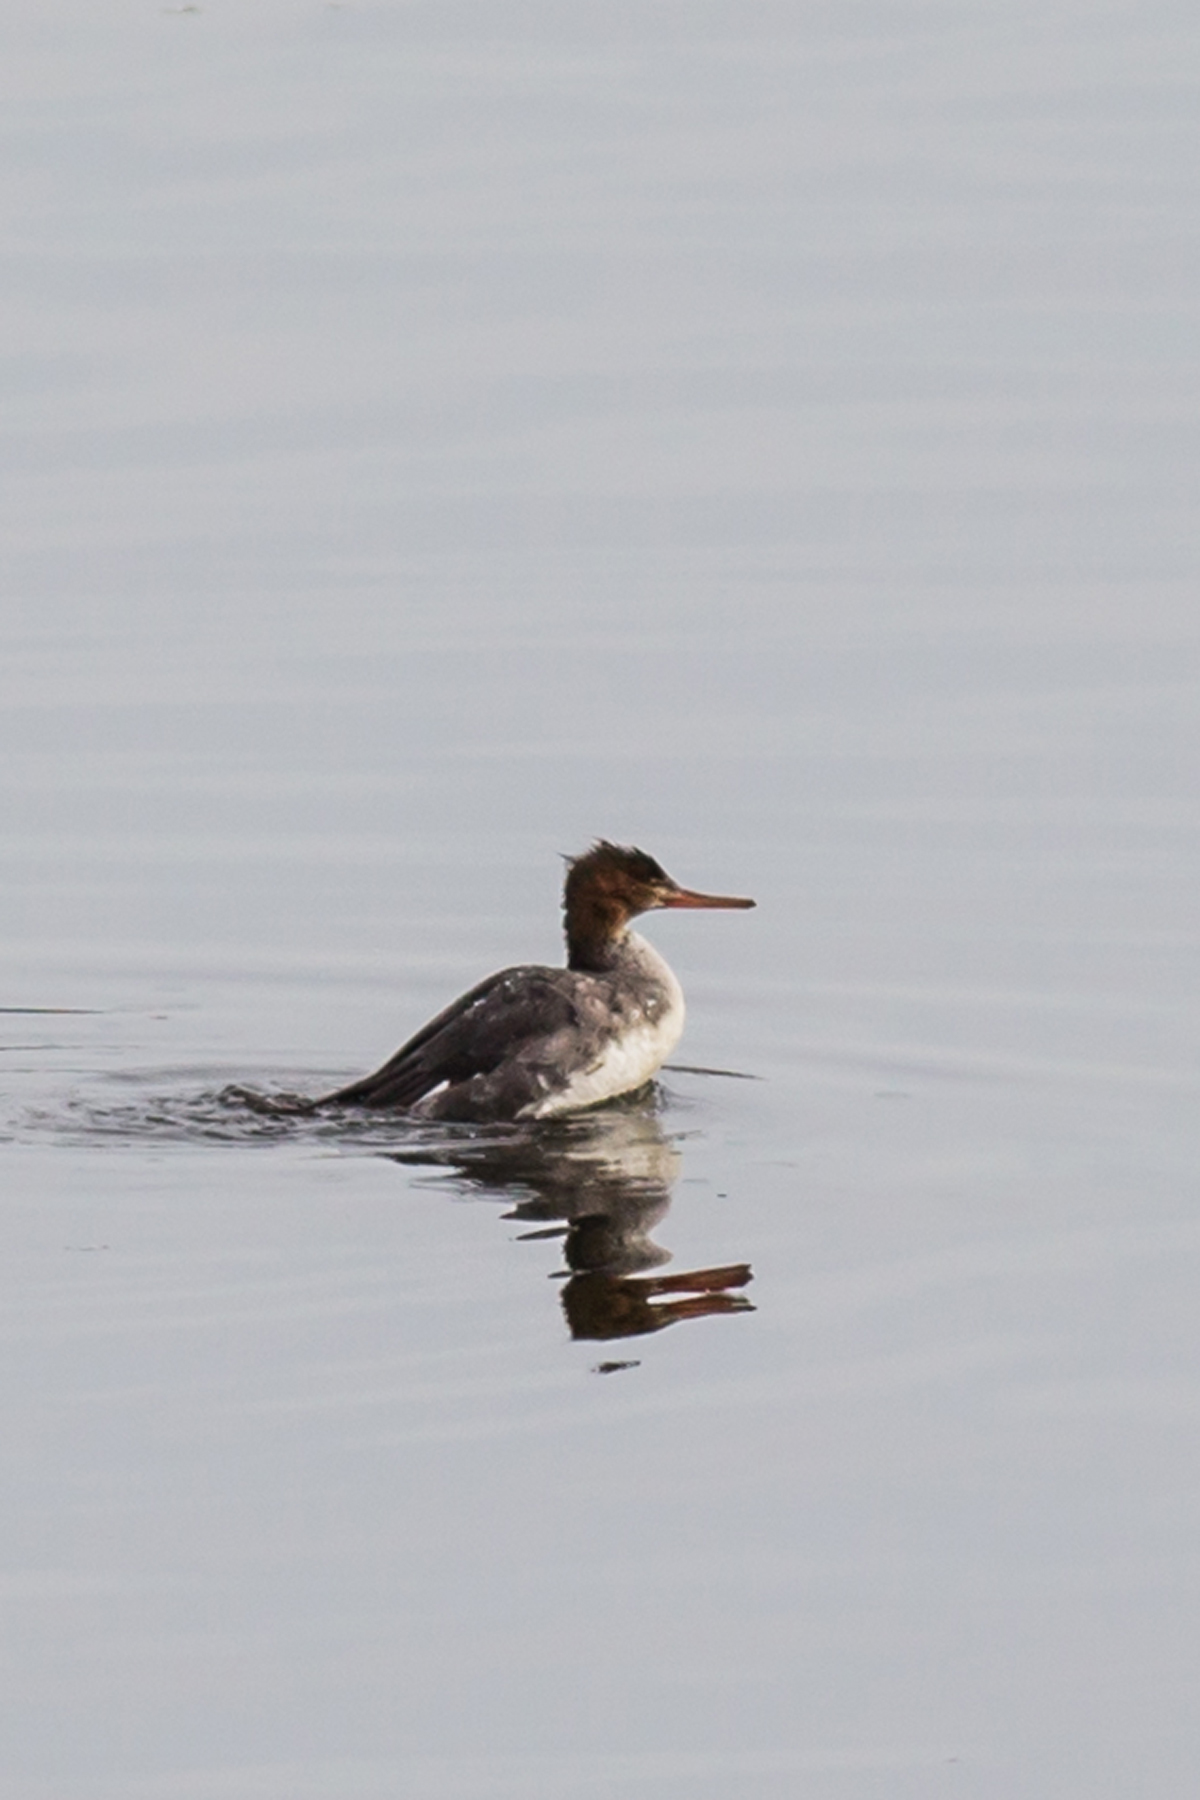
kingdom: Animalia
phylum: Chordata
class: Aves
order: Anseriformes
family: Anatidae
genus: Mergus
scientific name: Mergus serrator
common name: Red-breasted merganser
